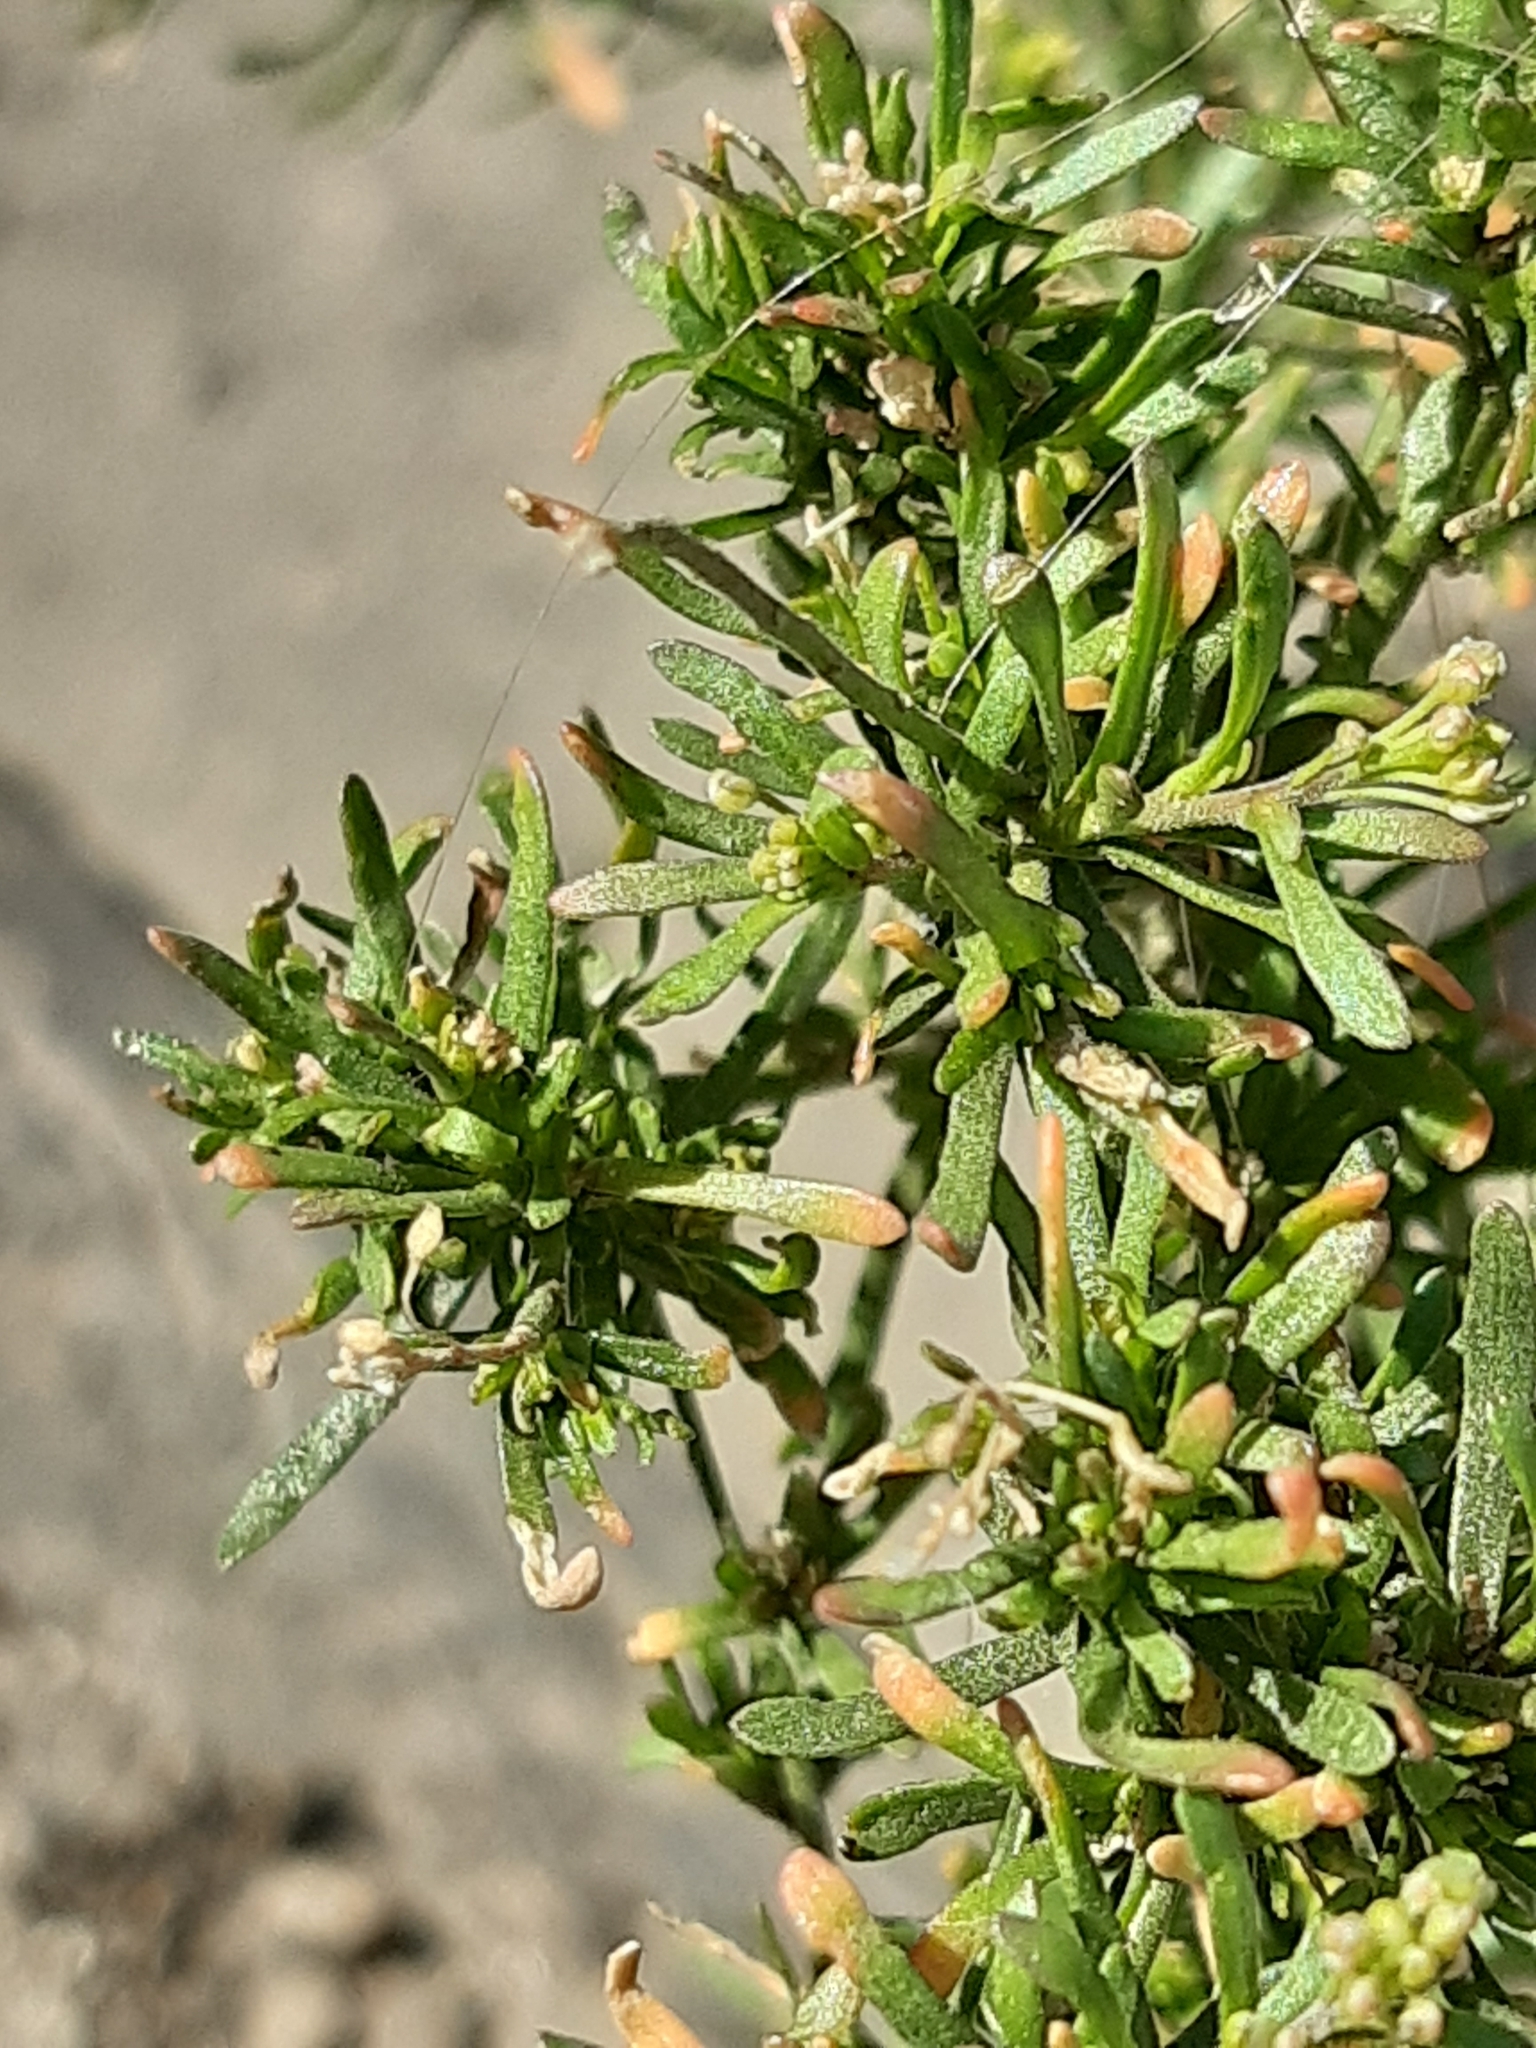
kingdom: Plantae
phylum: Tracheophyta
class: Magnoliopsida
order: Brassicales
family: Brassicaceae
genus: Lepidium
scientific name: Lepidium ruderale
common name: Narrow-leaved pepperwort
